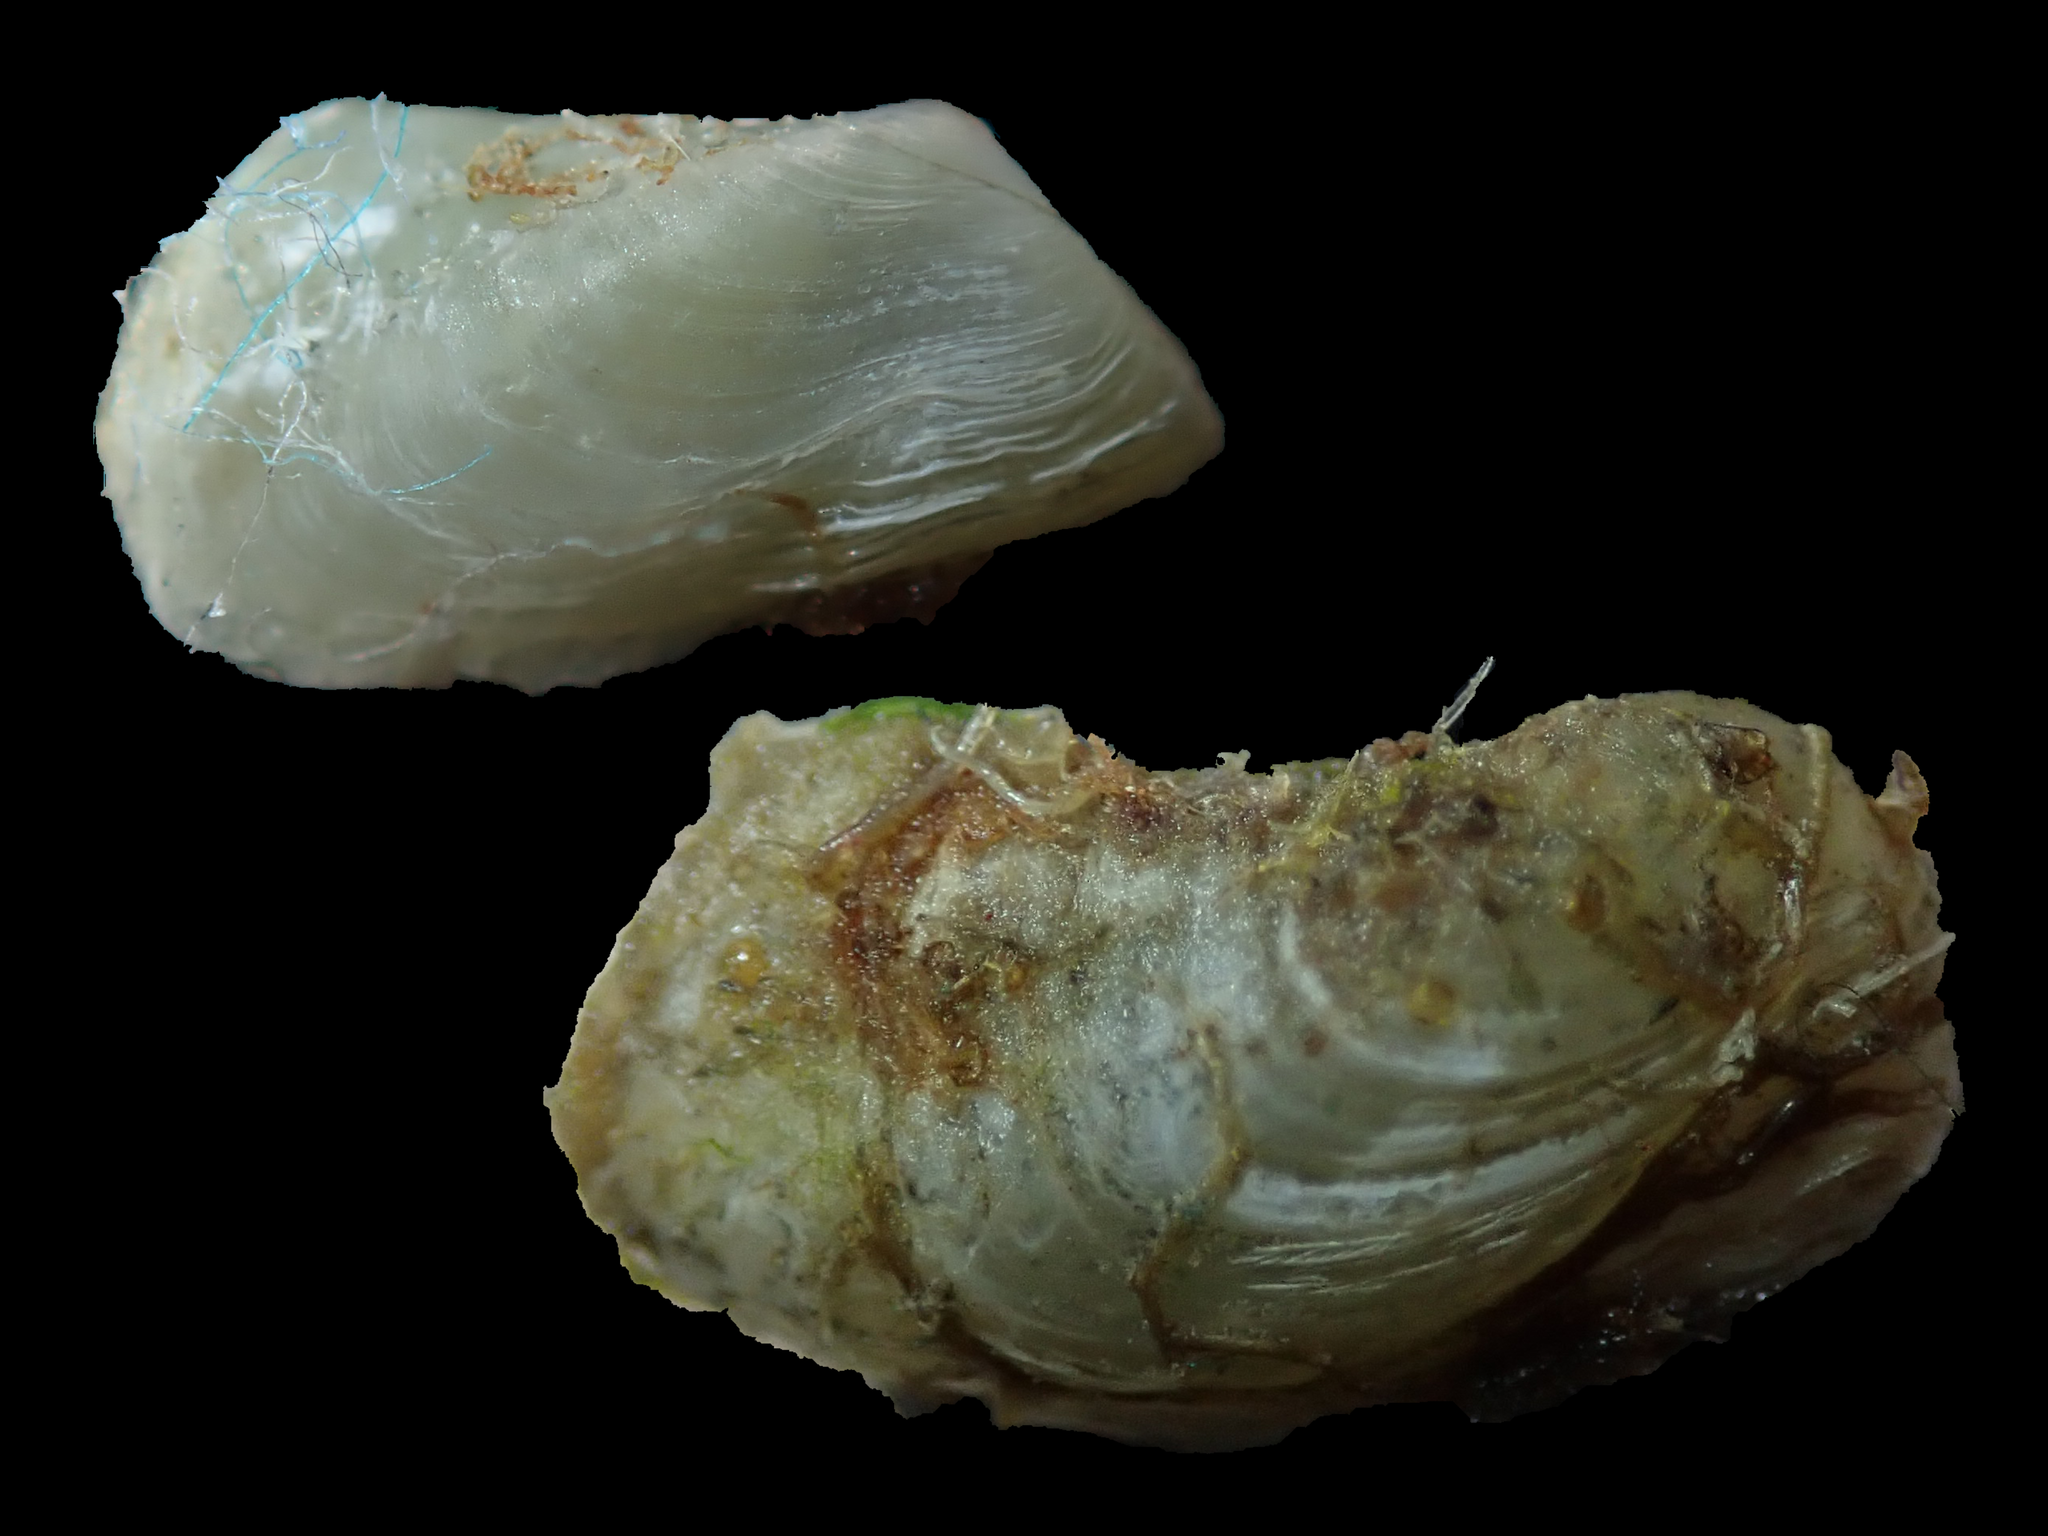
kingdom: Animalia
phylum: Mollusca
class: Bivalvia
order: Adapedonta
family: Hiatellidae
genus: Hiatella
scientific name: Hiatella australis
